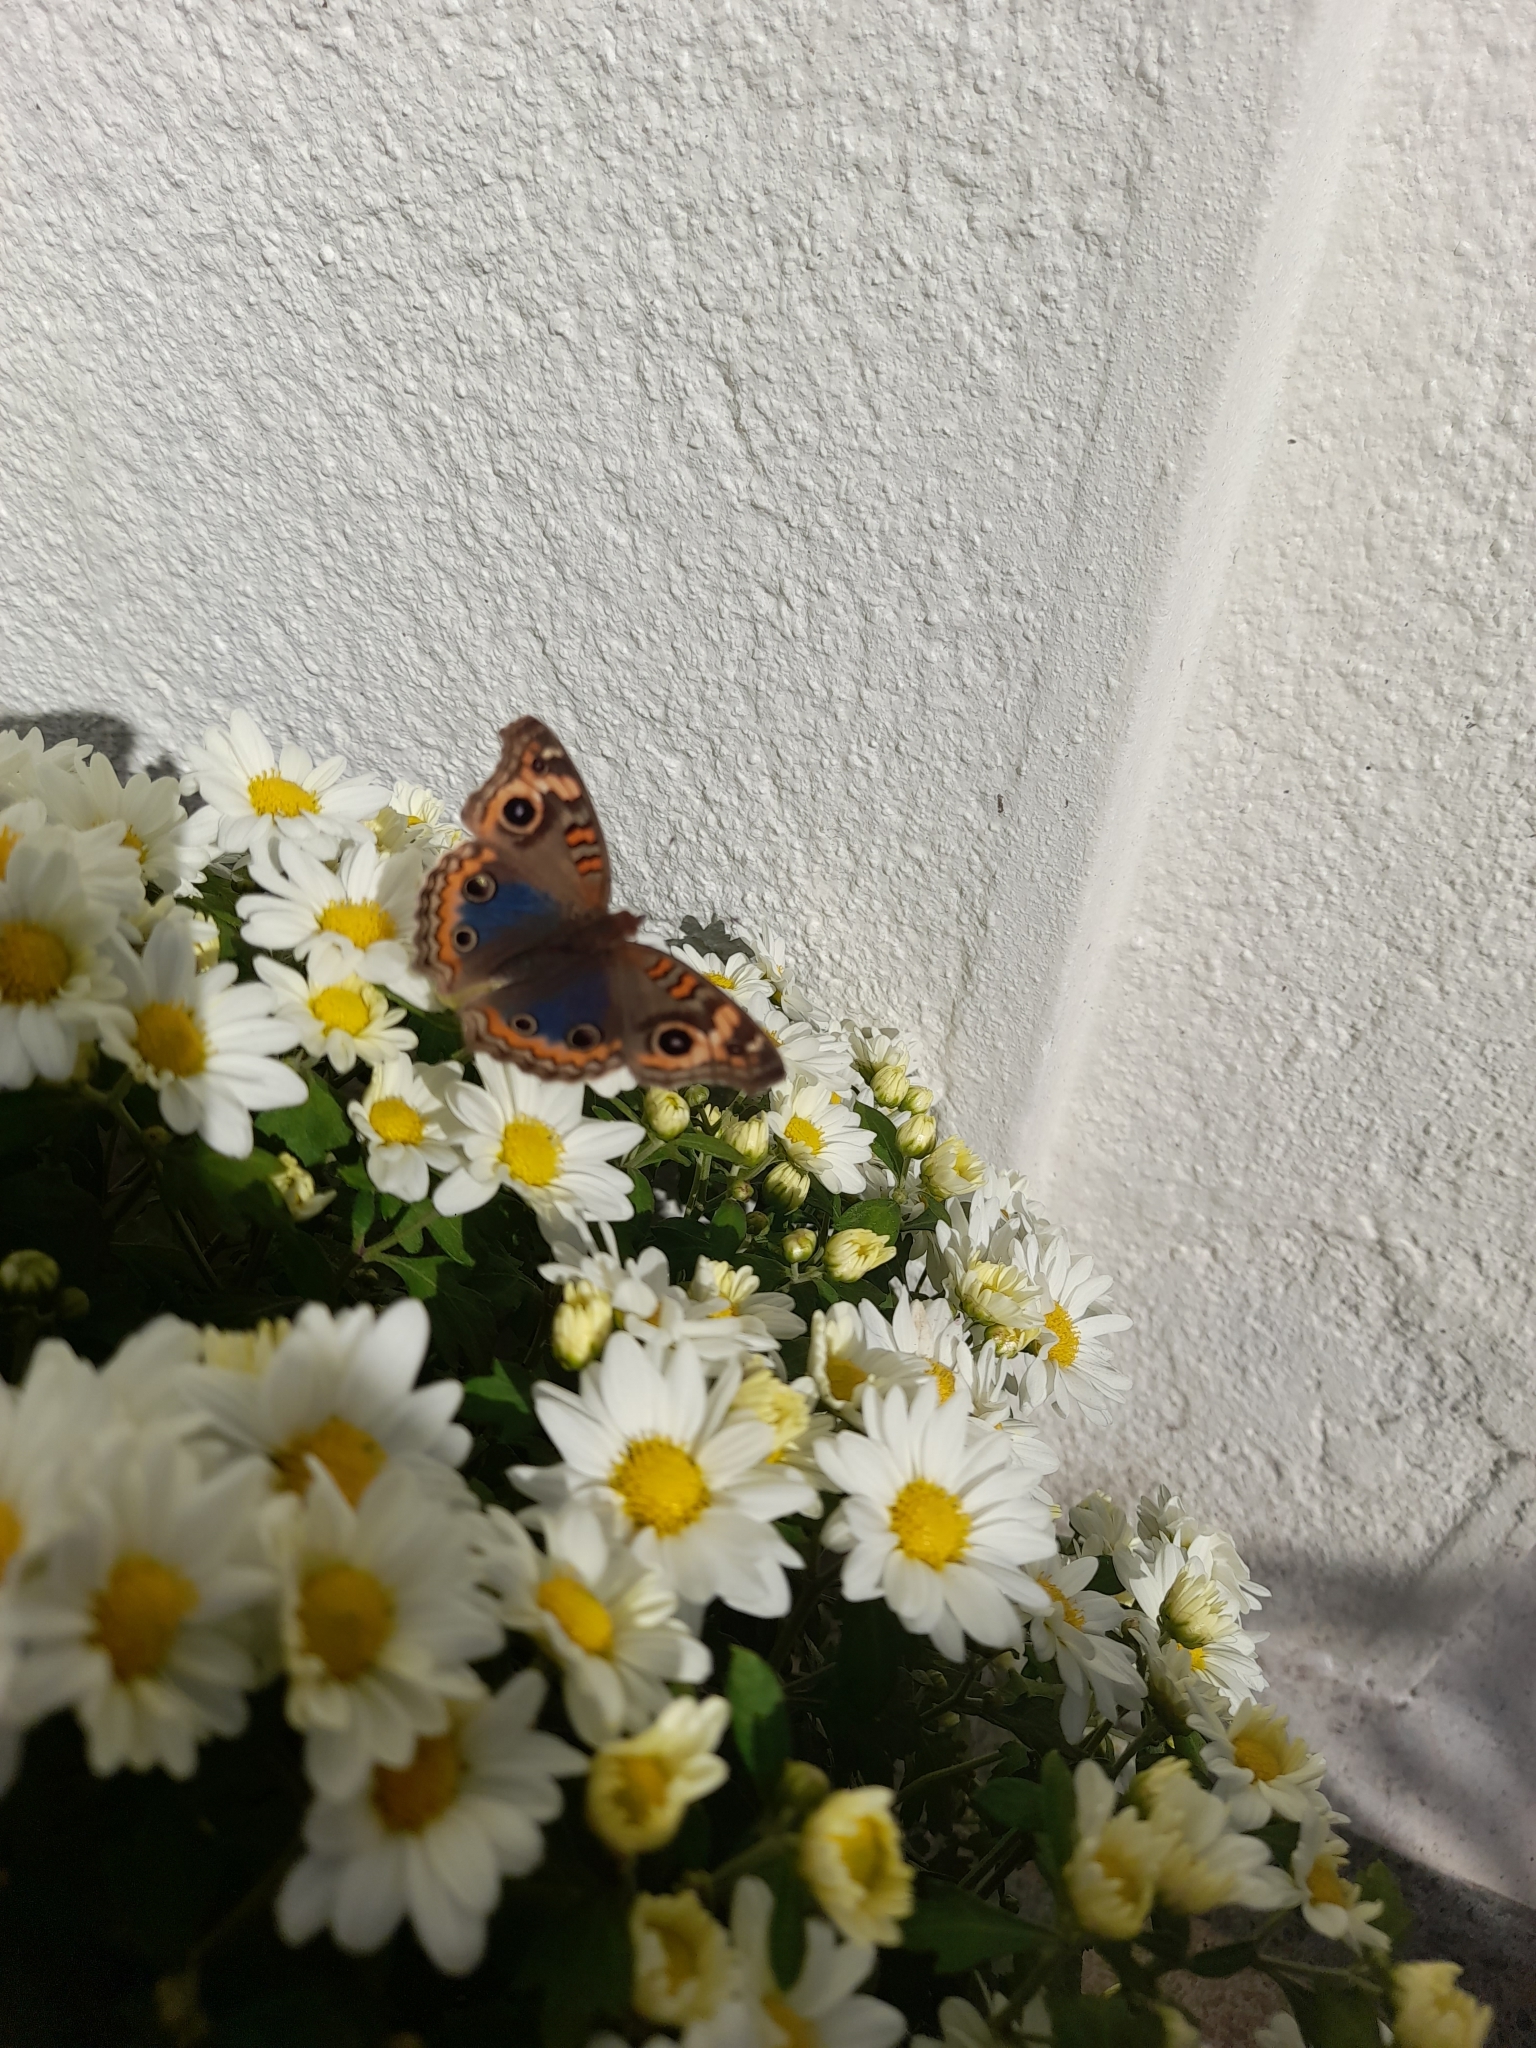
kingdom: Animalia
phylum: Arthropoda
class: Insecta
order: Lepidoptera
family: Nymphalidae
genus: Junonia
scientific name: Junonia lavinia
